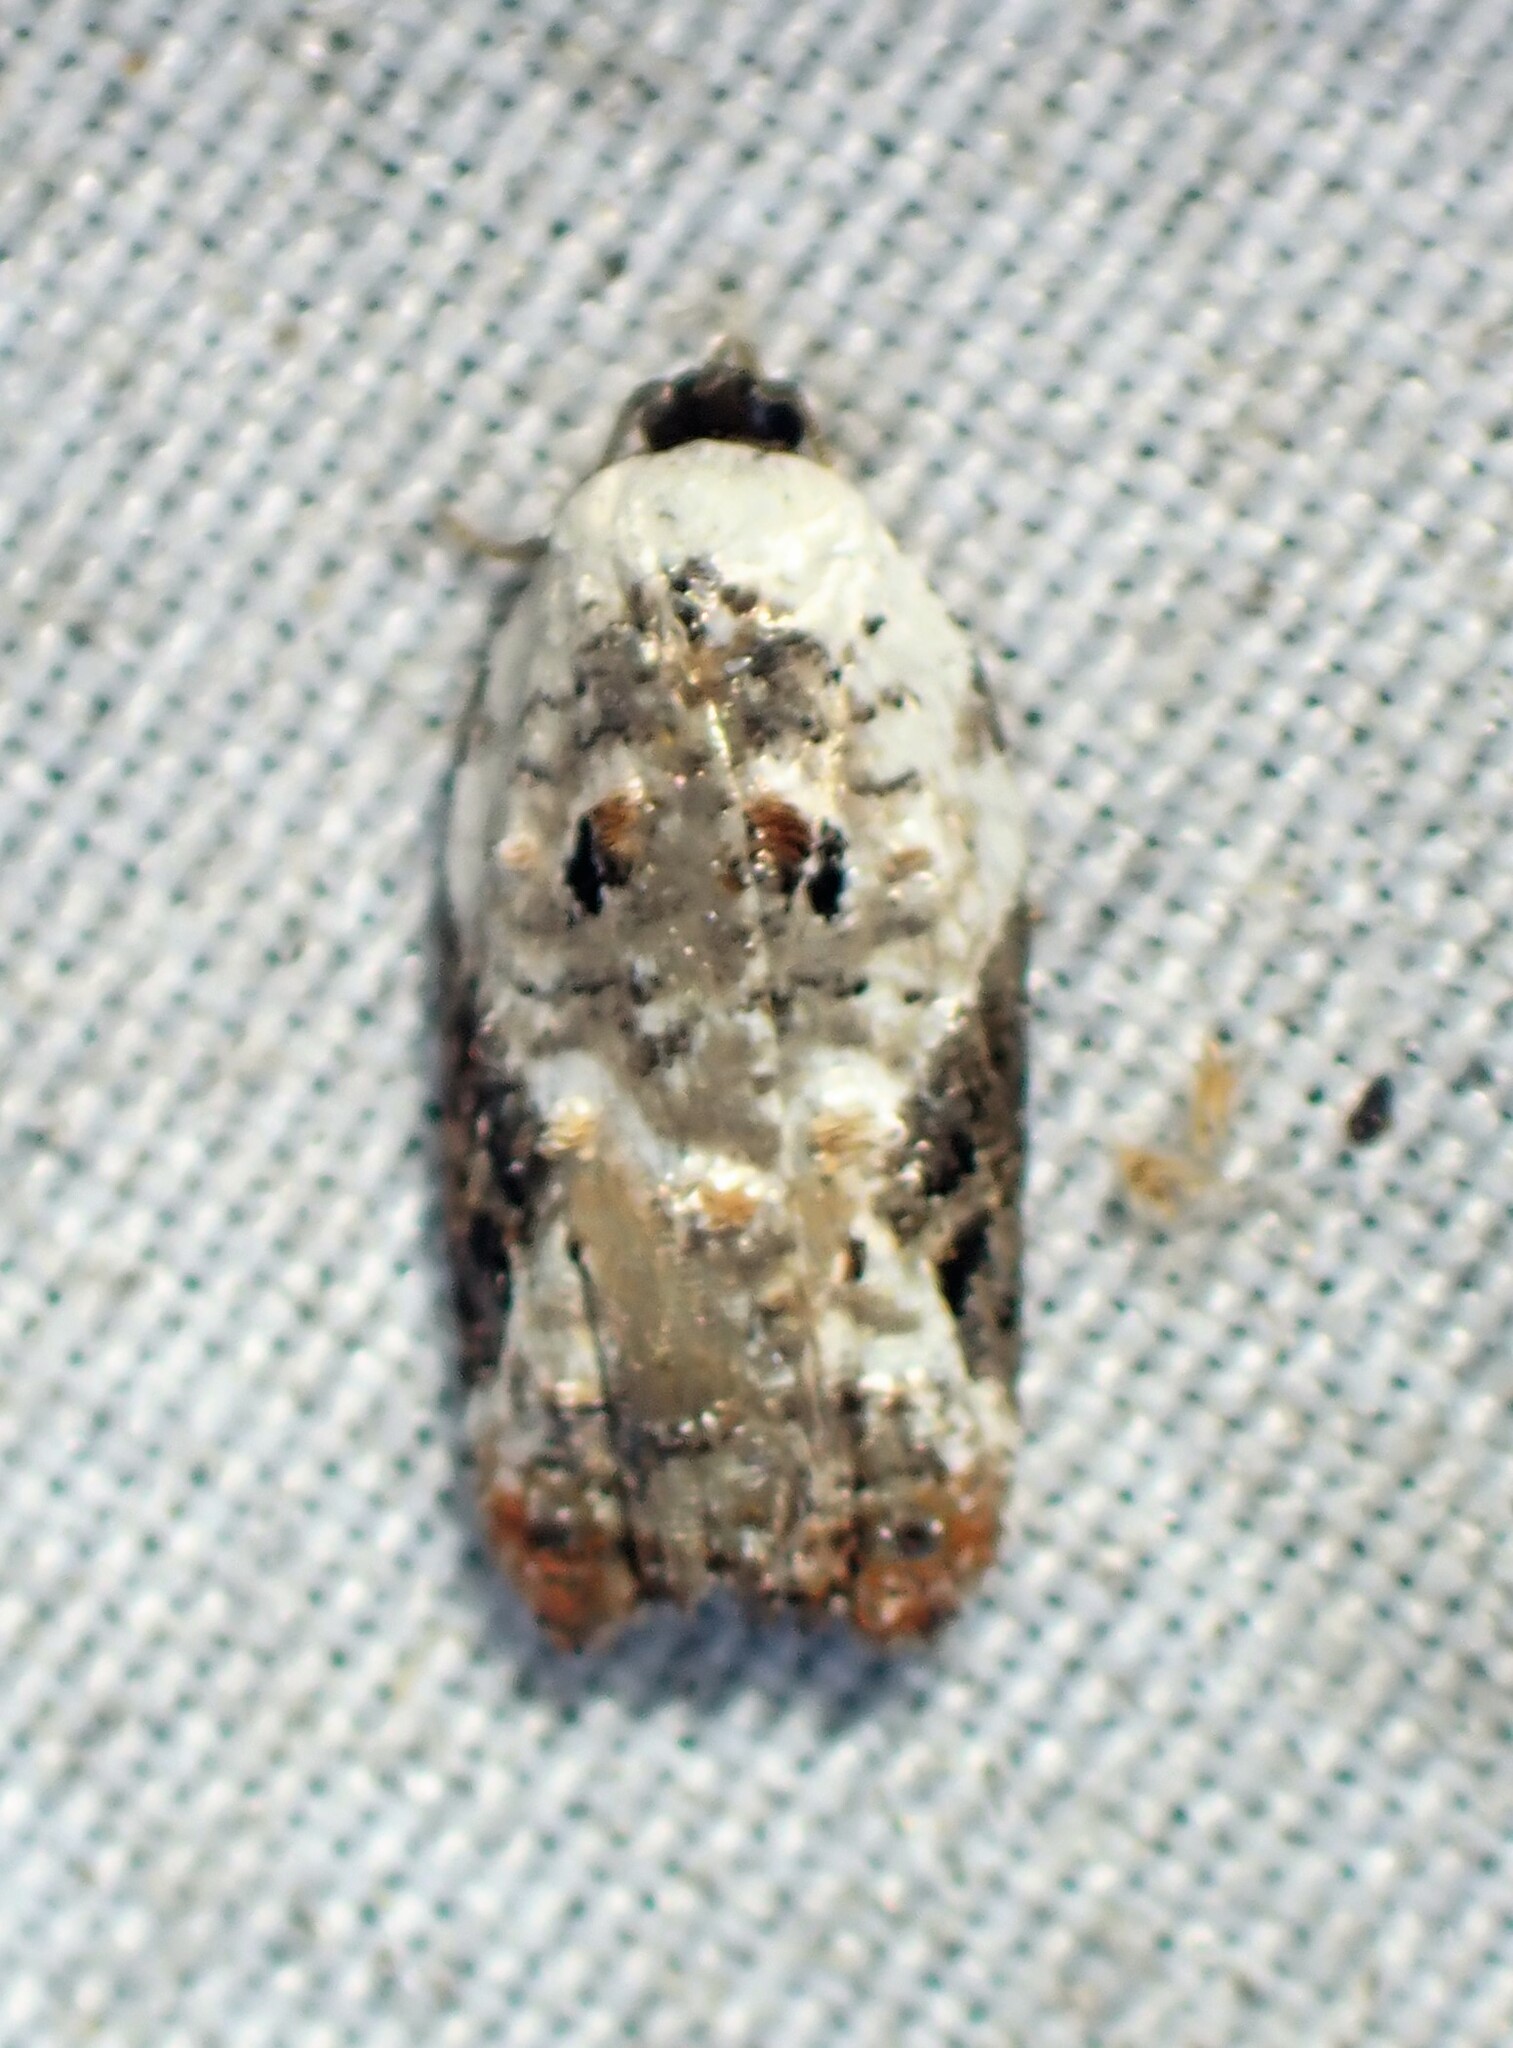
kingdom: Animalia
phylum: Arthropoda
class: Insecta
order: Lepidoptera
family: Tortricidae
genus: Acleris
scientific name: Acleris nivisellana
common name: Snowy-shouldered acleris moth
